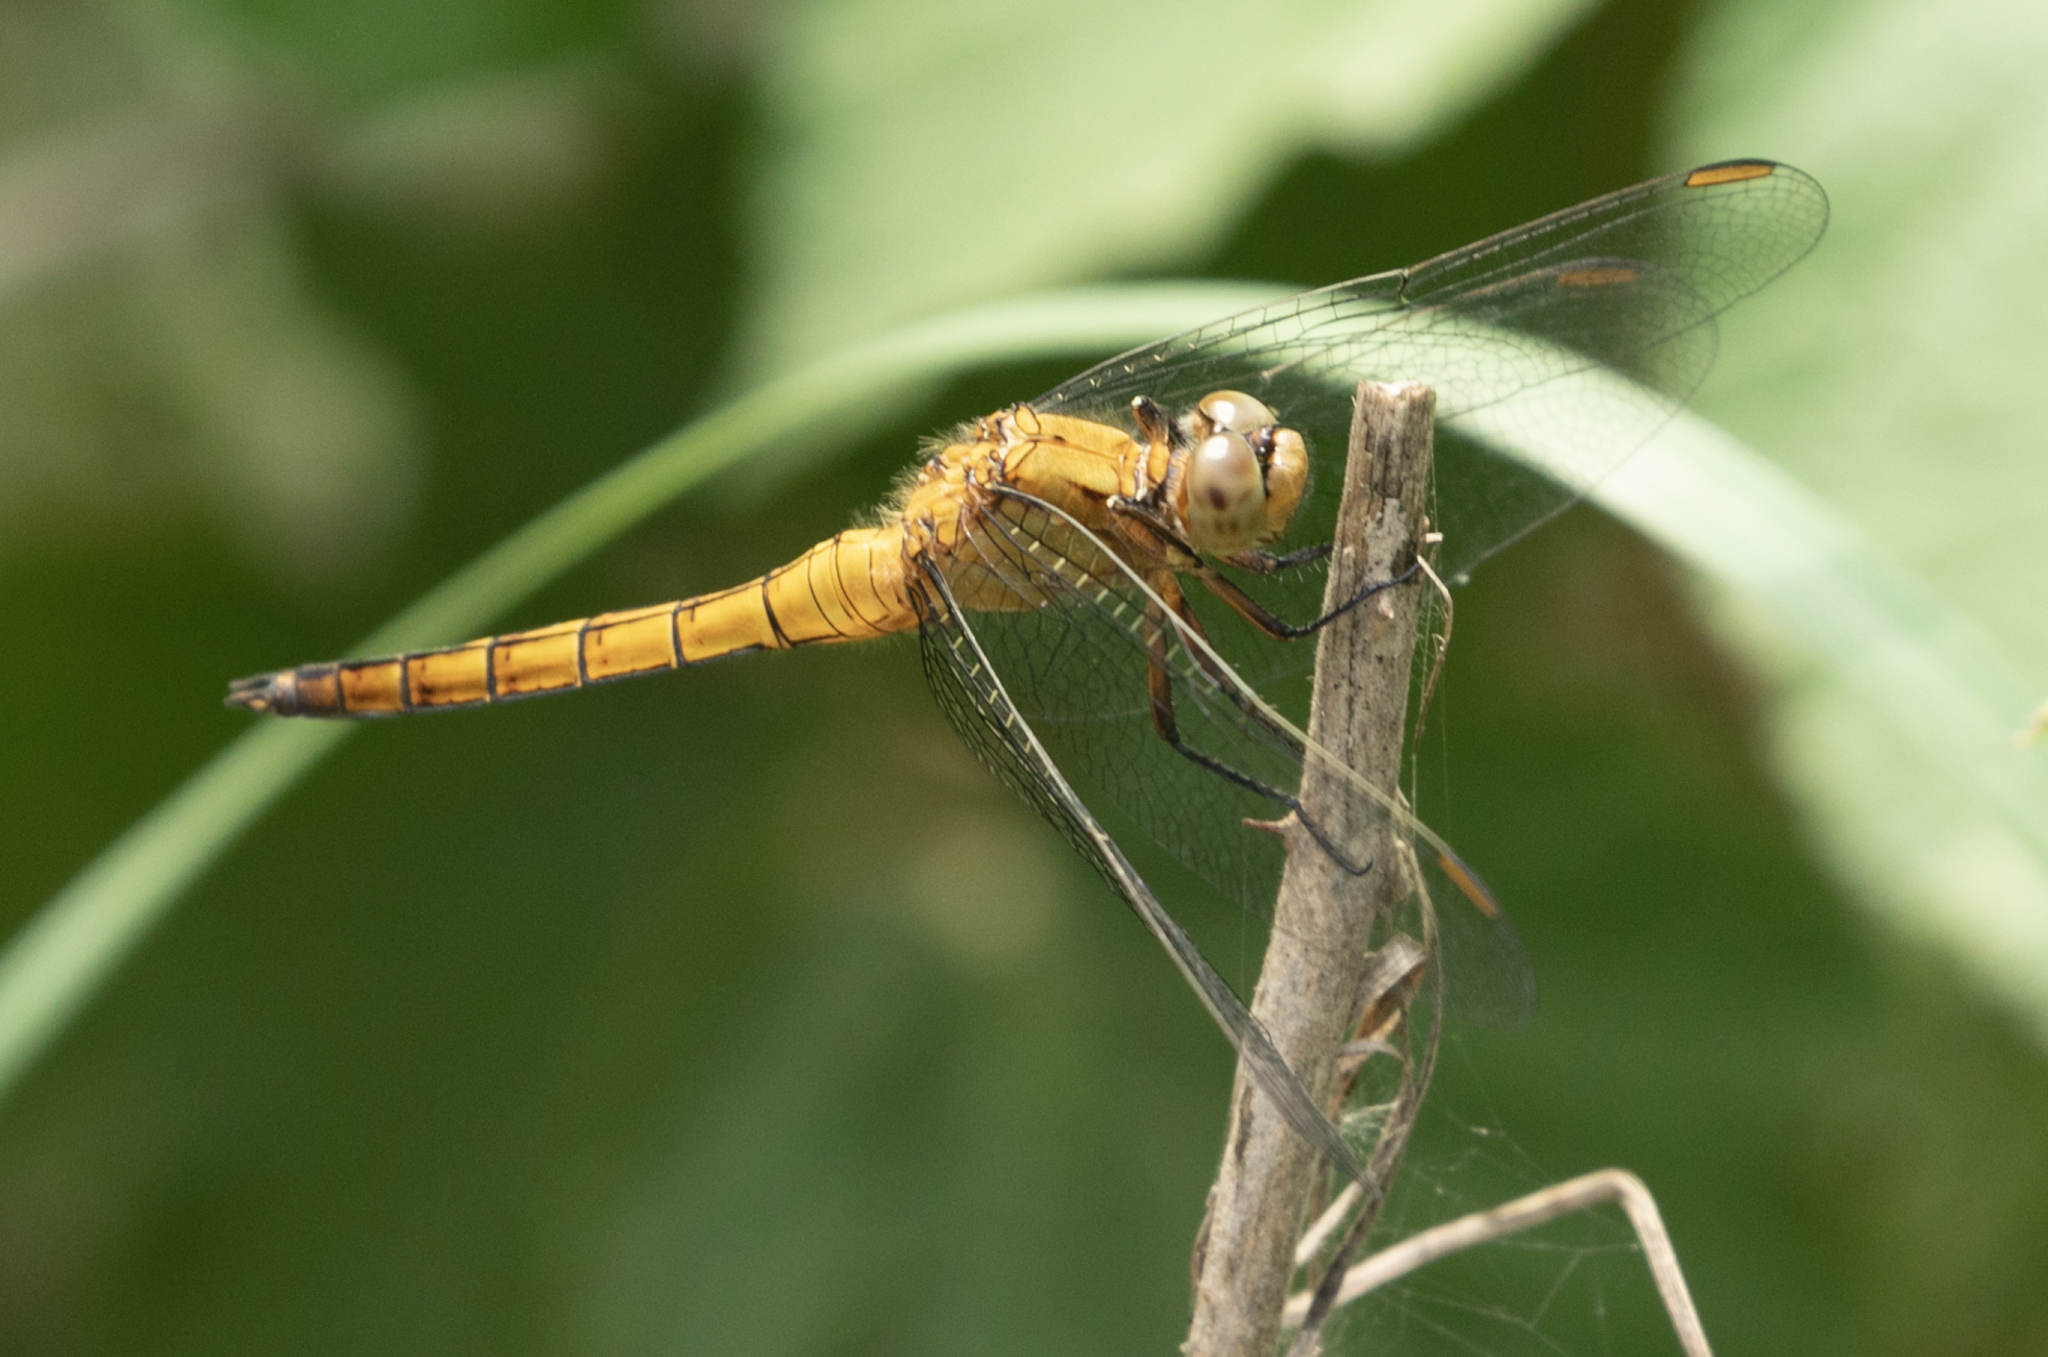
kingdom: Animalia
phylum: Arthropoda
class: Insecta
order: Odonata
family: Libellulidae
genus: Orthetrum
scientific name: Orthetrum coerulescens
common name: Keeled skimmer
